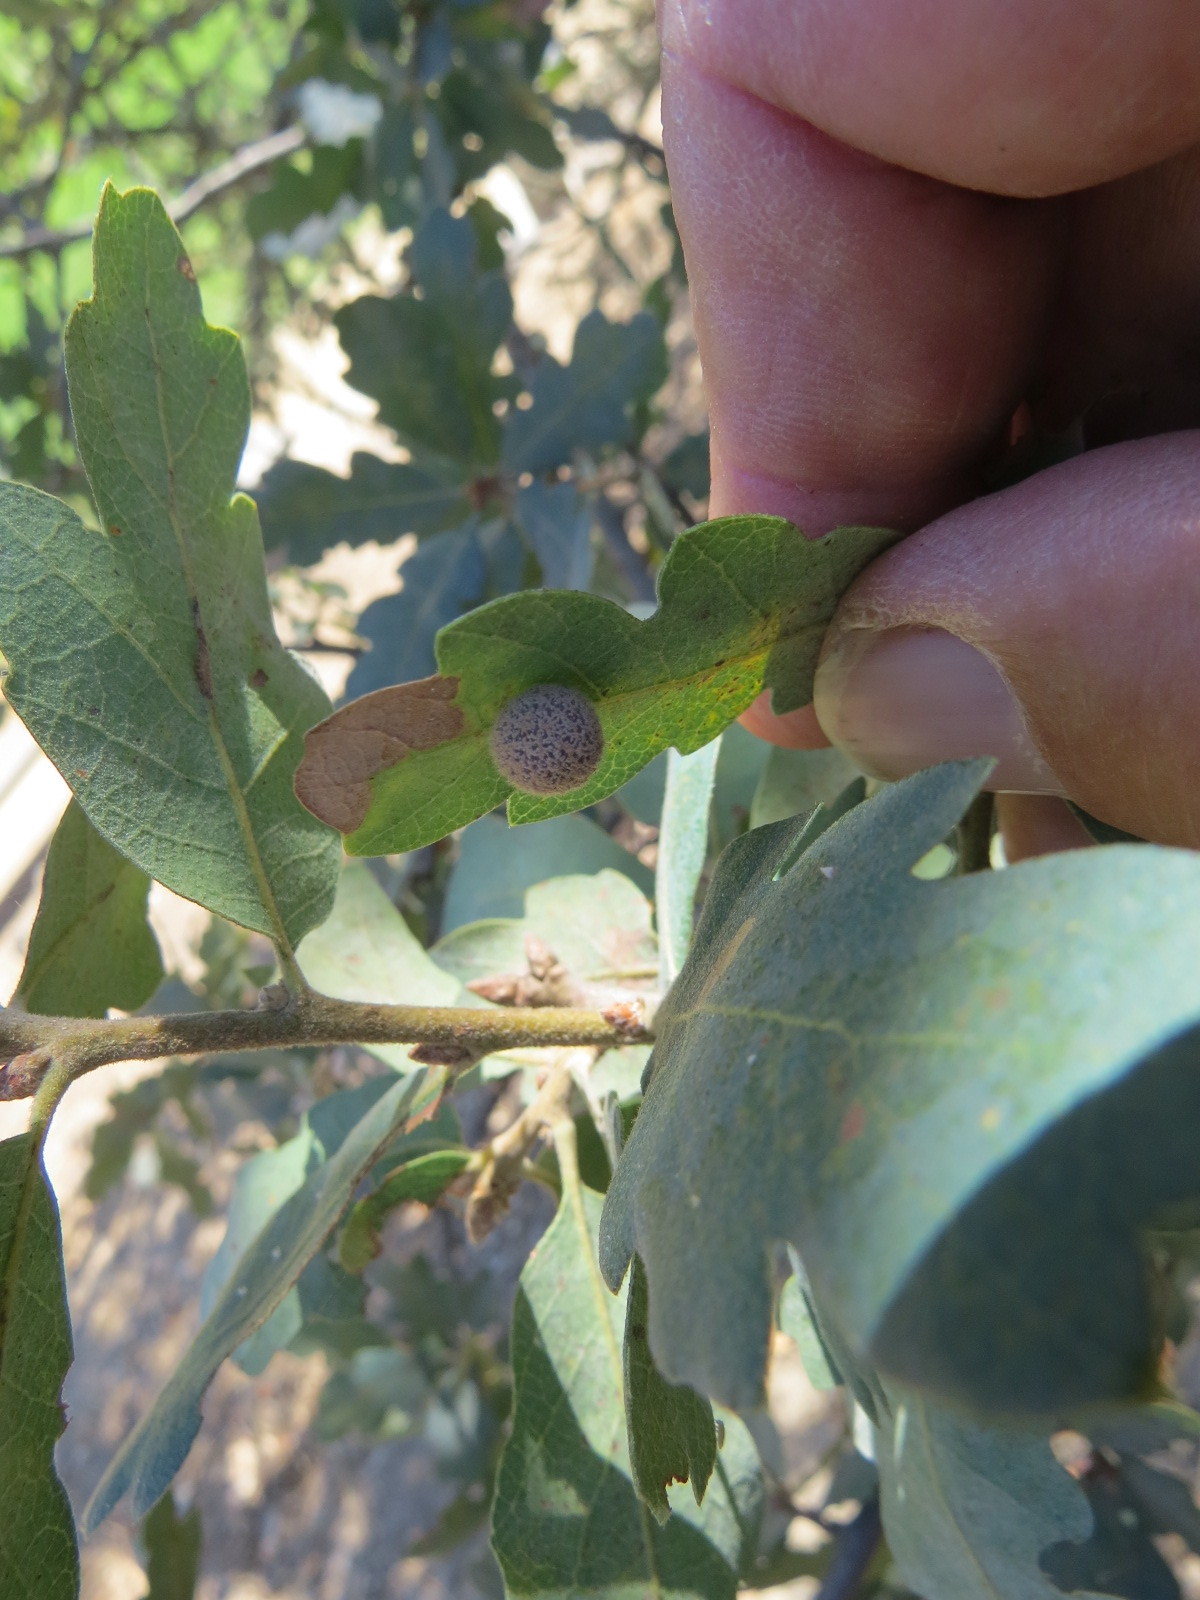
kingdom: Animalia
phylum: Arthropoda
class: Insecta
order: Hymenoptera
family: Cynipidae
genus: Cynips
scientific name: Cynips
